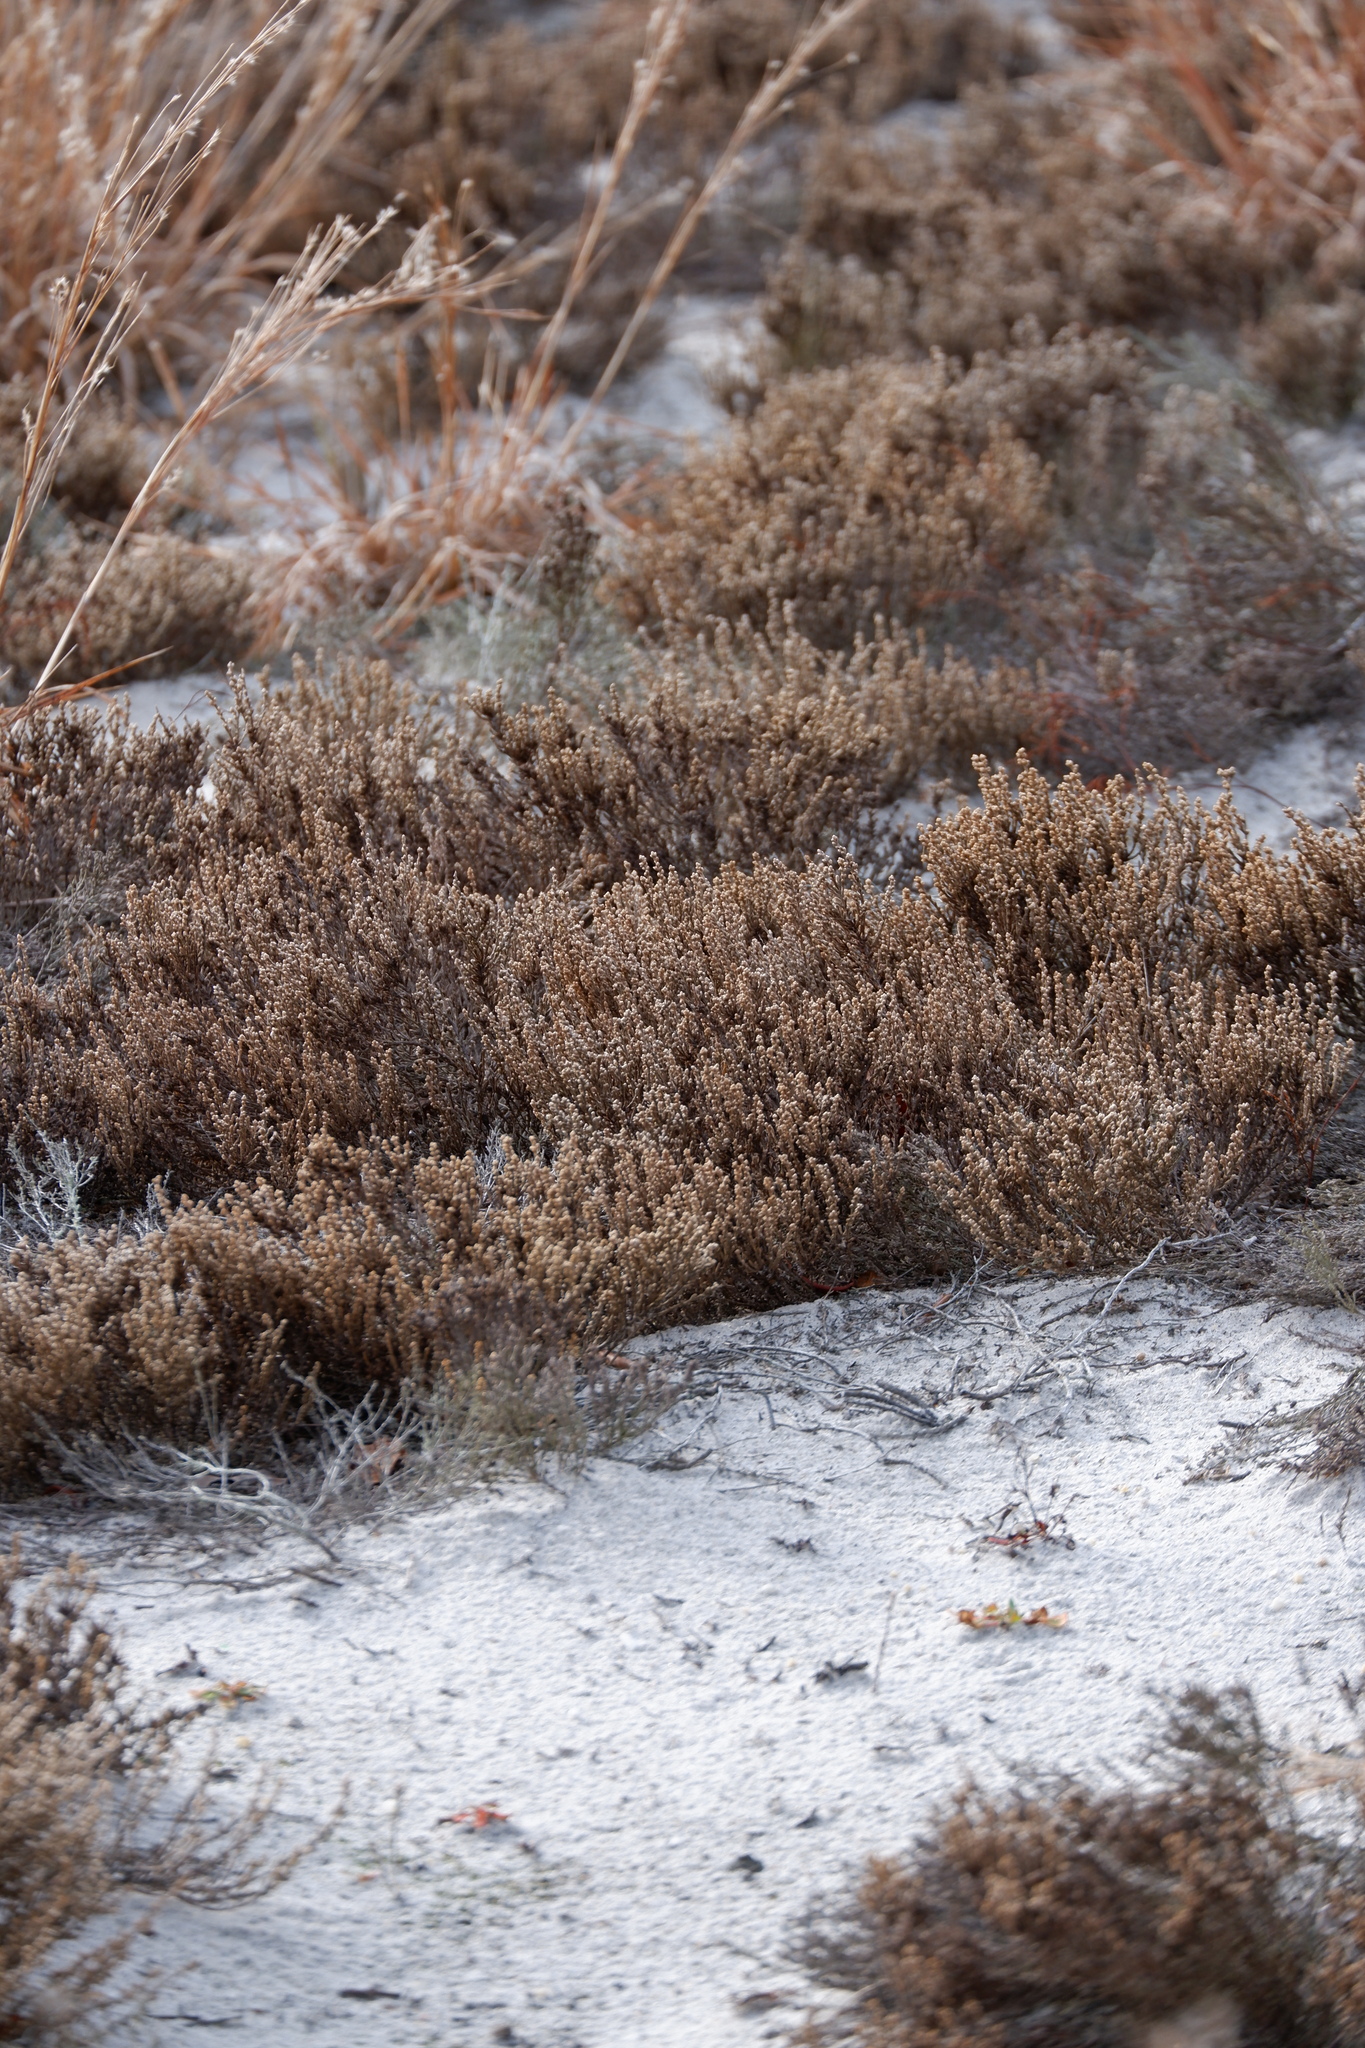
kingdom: Plantae
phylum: Tracheophyta
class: Magnoliopsida
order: Malvales
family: Cistaceae
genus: Hudsonia
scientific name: Hudsonia tomentosa
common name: Beach-heath
